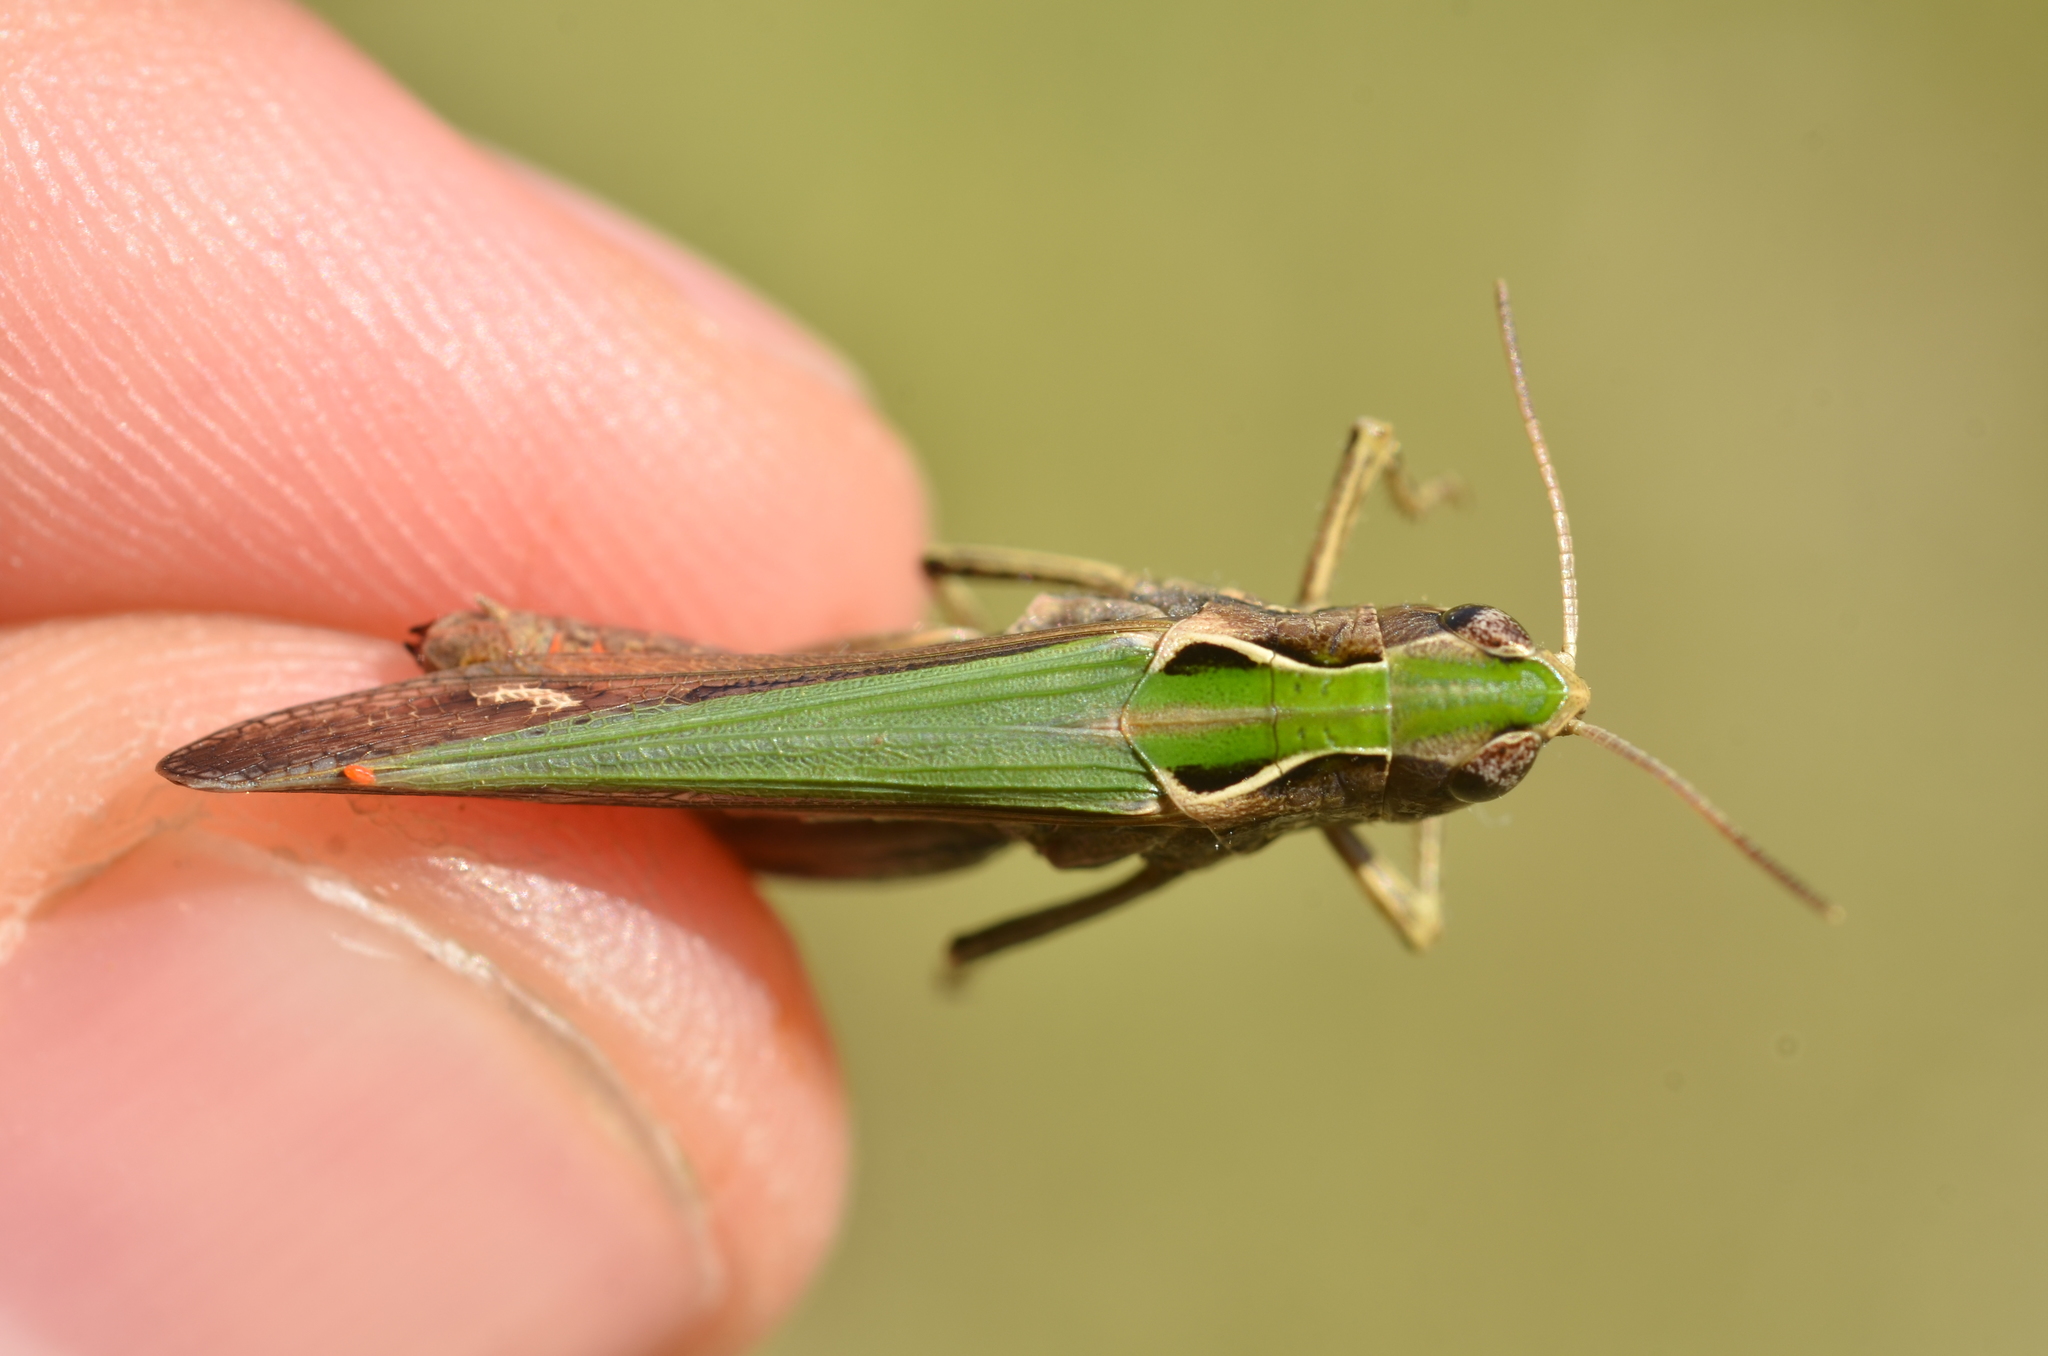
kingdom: Animalia
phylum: Arthropoda
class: Insecta
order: Orthoptera
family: Acrididae
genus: Omocestus
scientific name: Omocestus rufipes
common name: Woodland grasshopper
